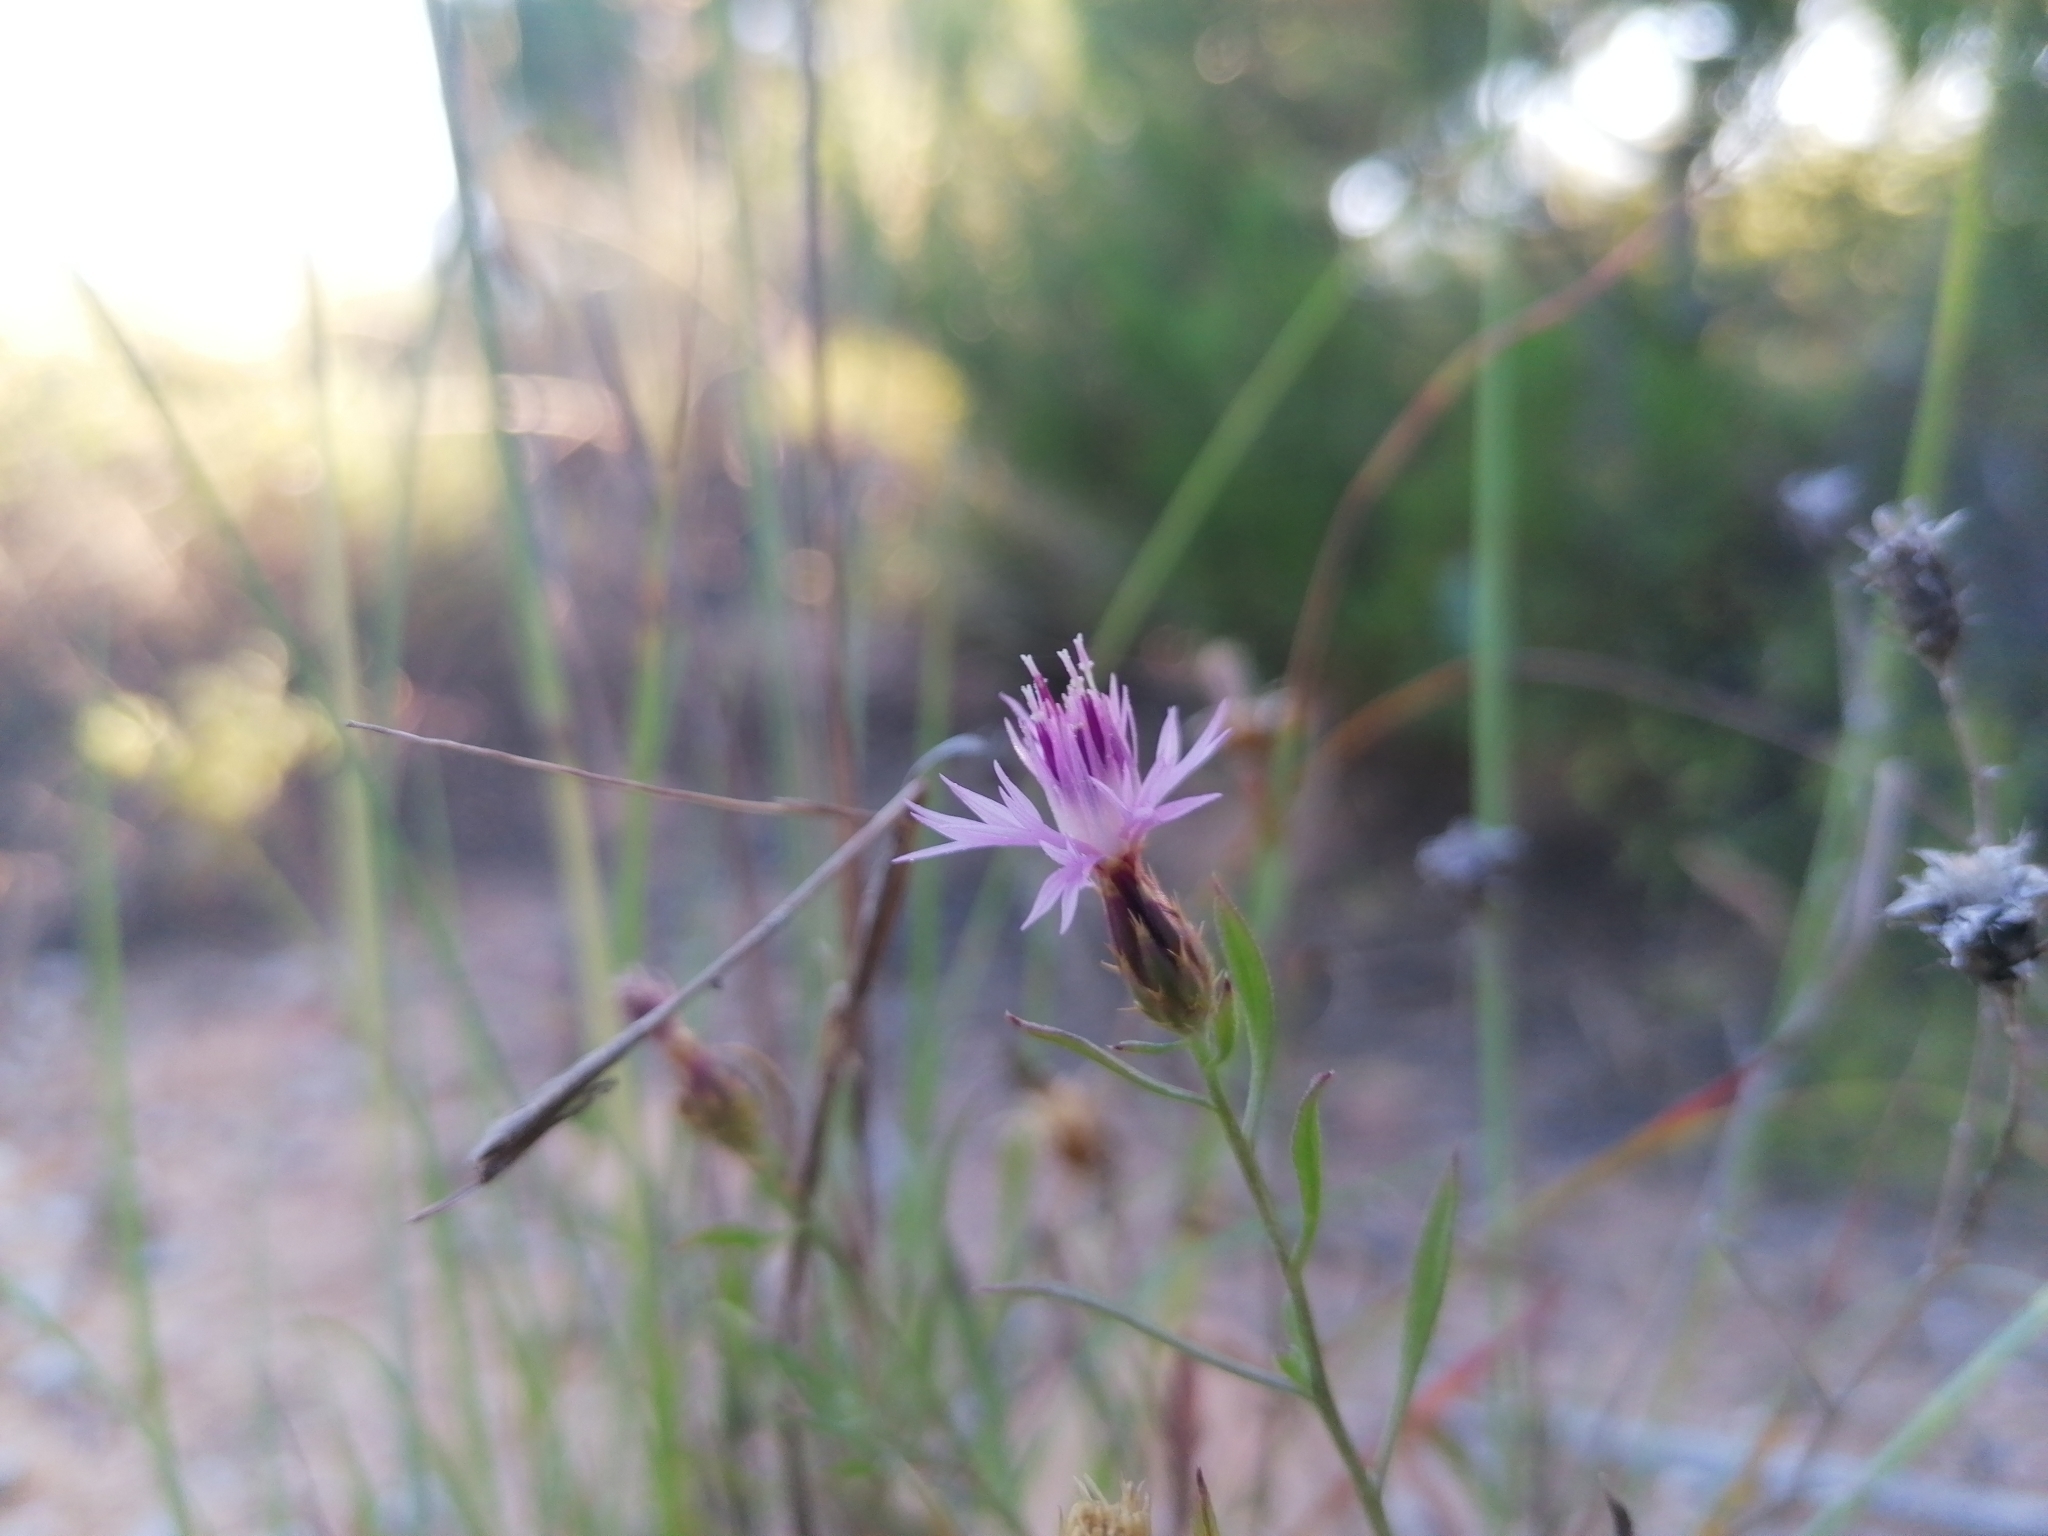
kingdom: Plantae
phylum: Tracheophyta
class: Magnoliopsida
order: Asterales
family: Asteraceae
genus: Centaurea
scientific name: Centaurea aspera
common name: Rough star-thistle
